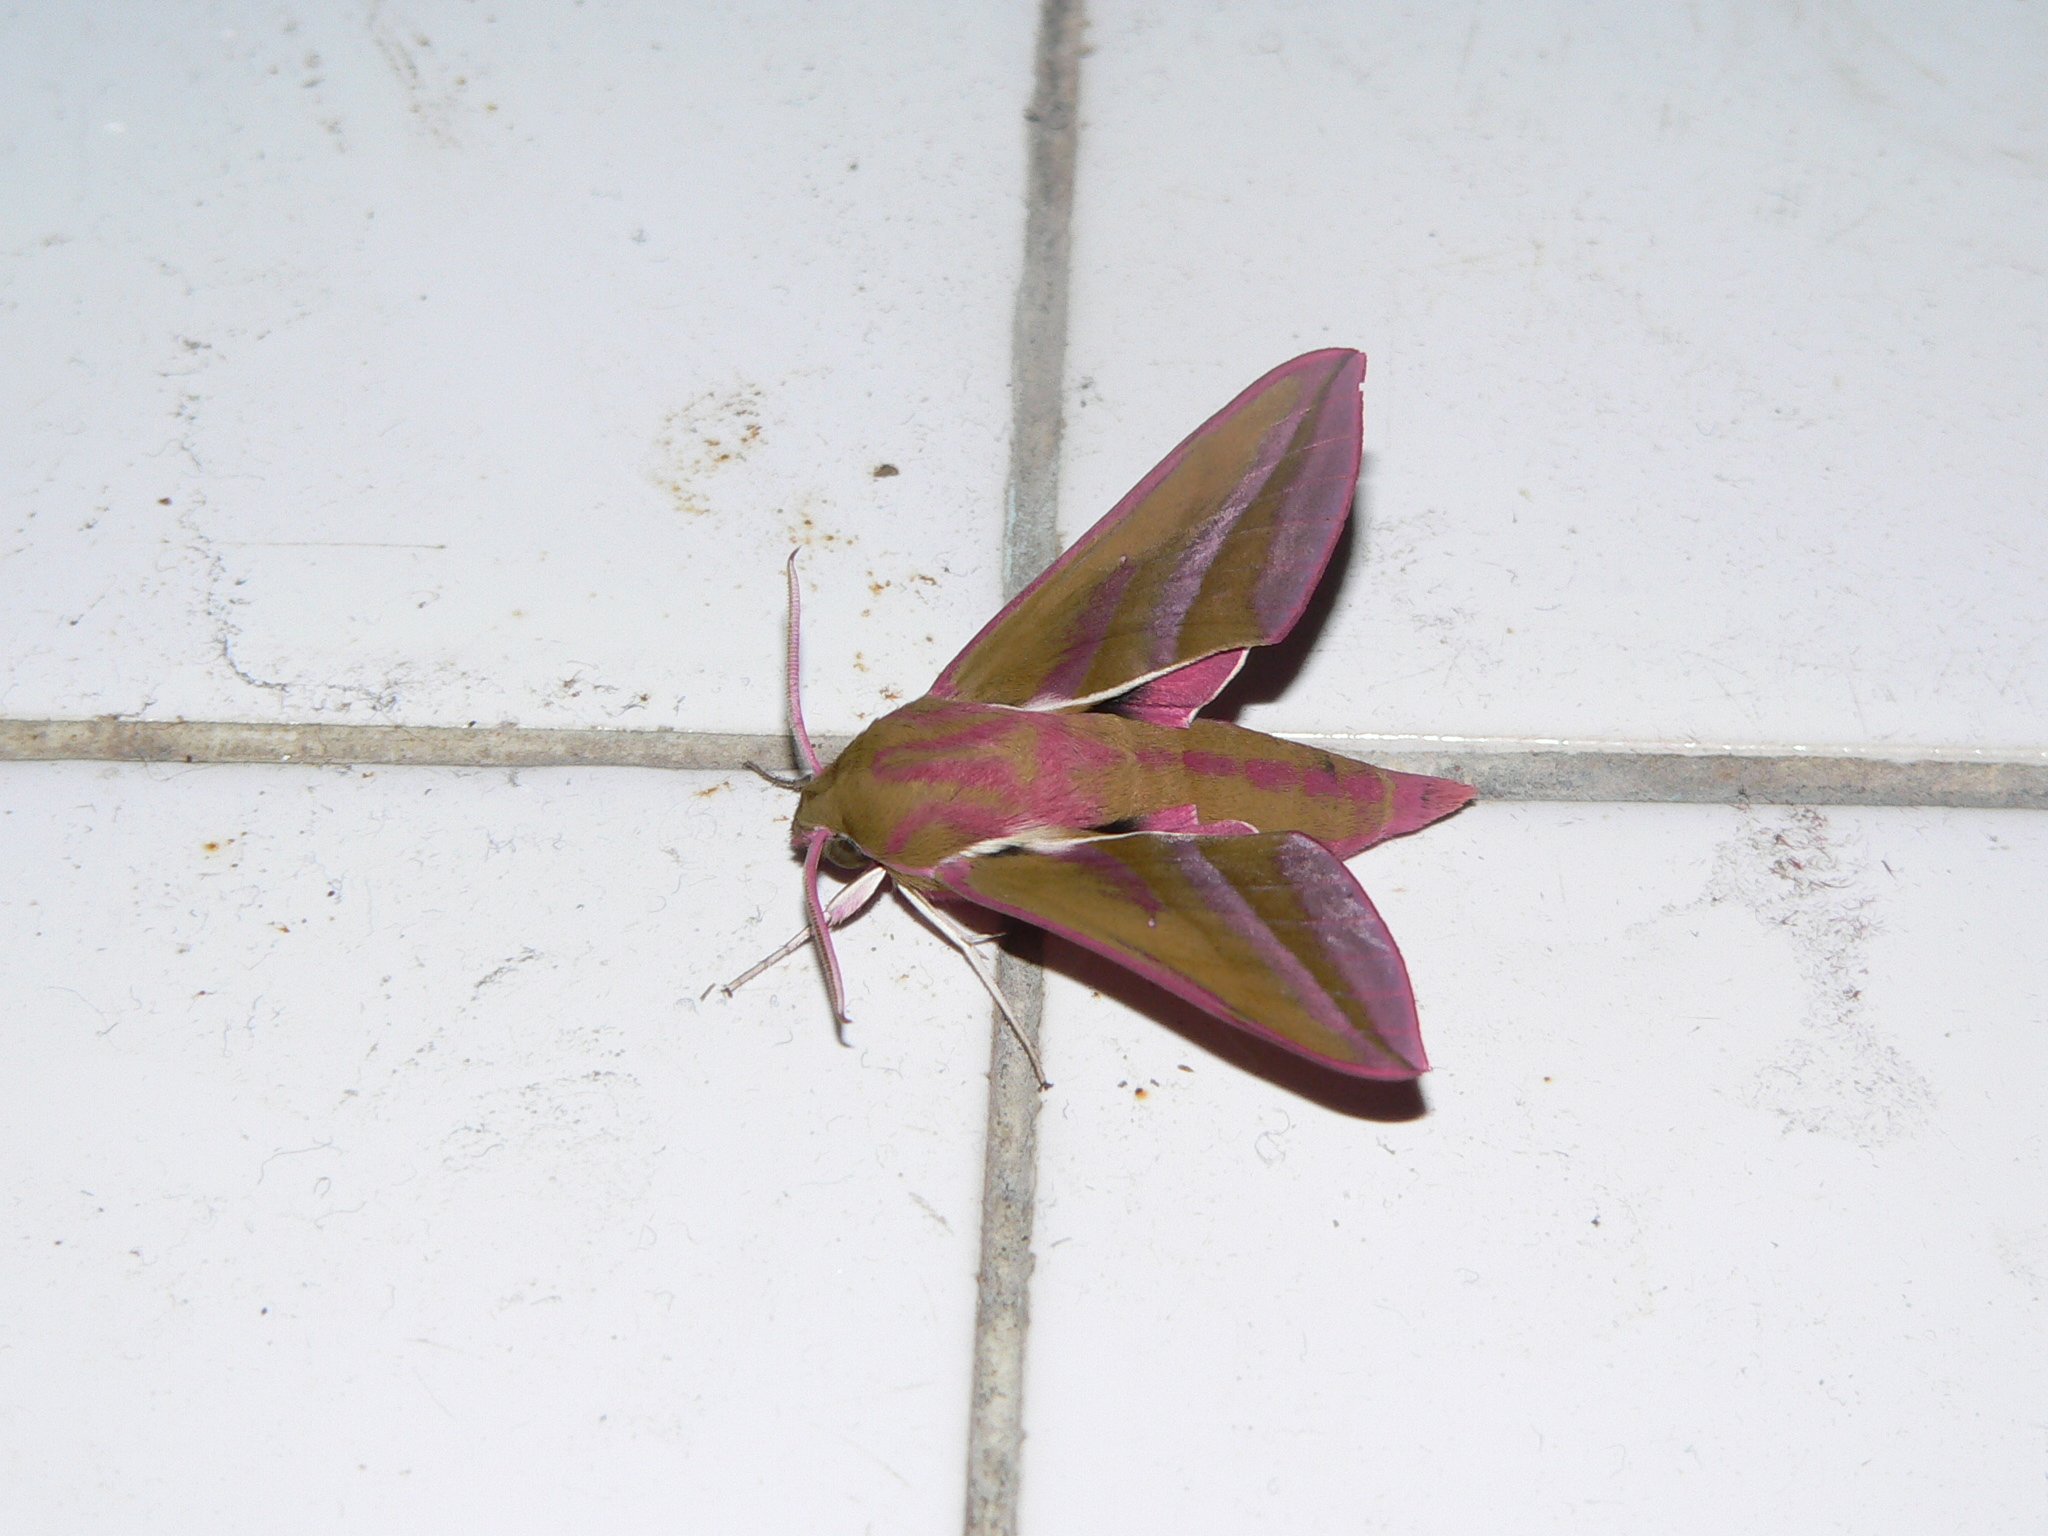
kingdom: Animalia
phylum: Arthropoda
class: Insecta
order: Lepidoptera
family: Sphingidae
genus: Deilephila
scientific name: Deilephila elpenor
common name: Elephant hawk-moth
